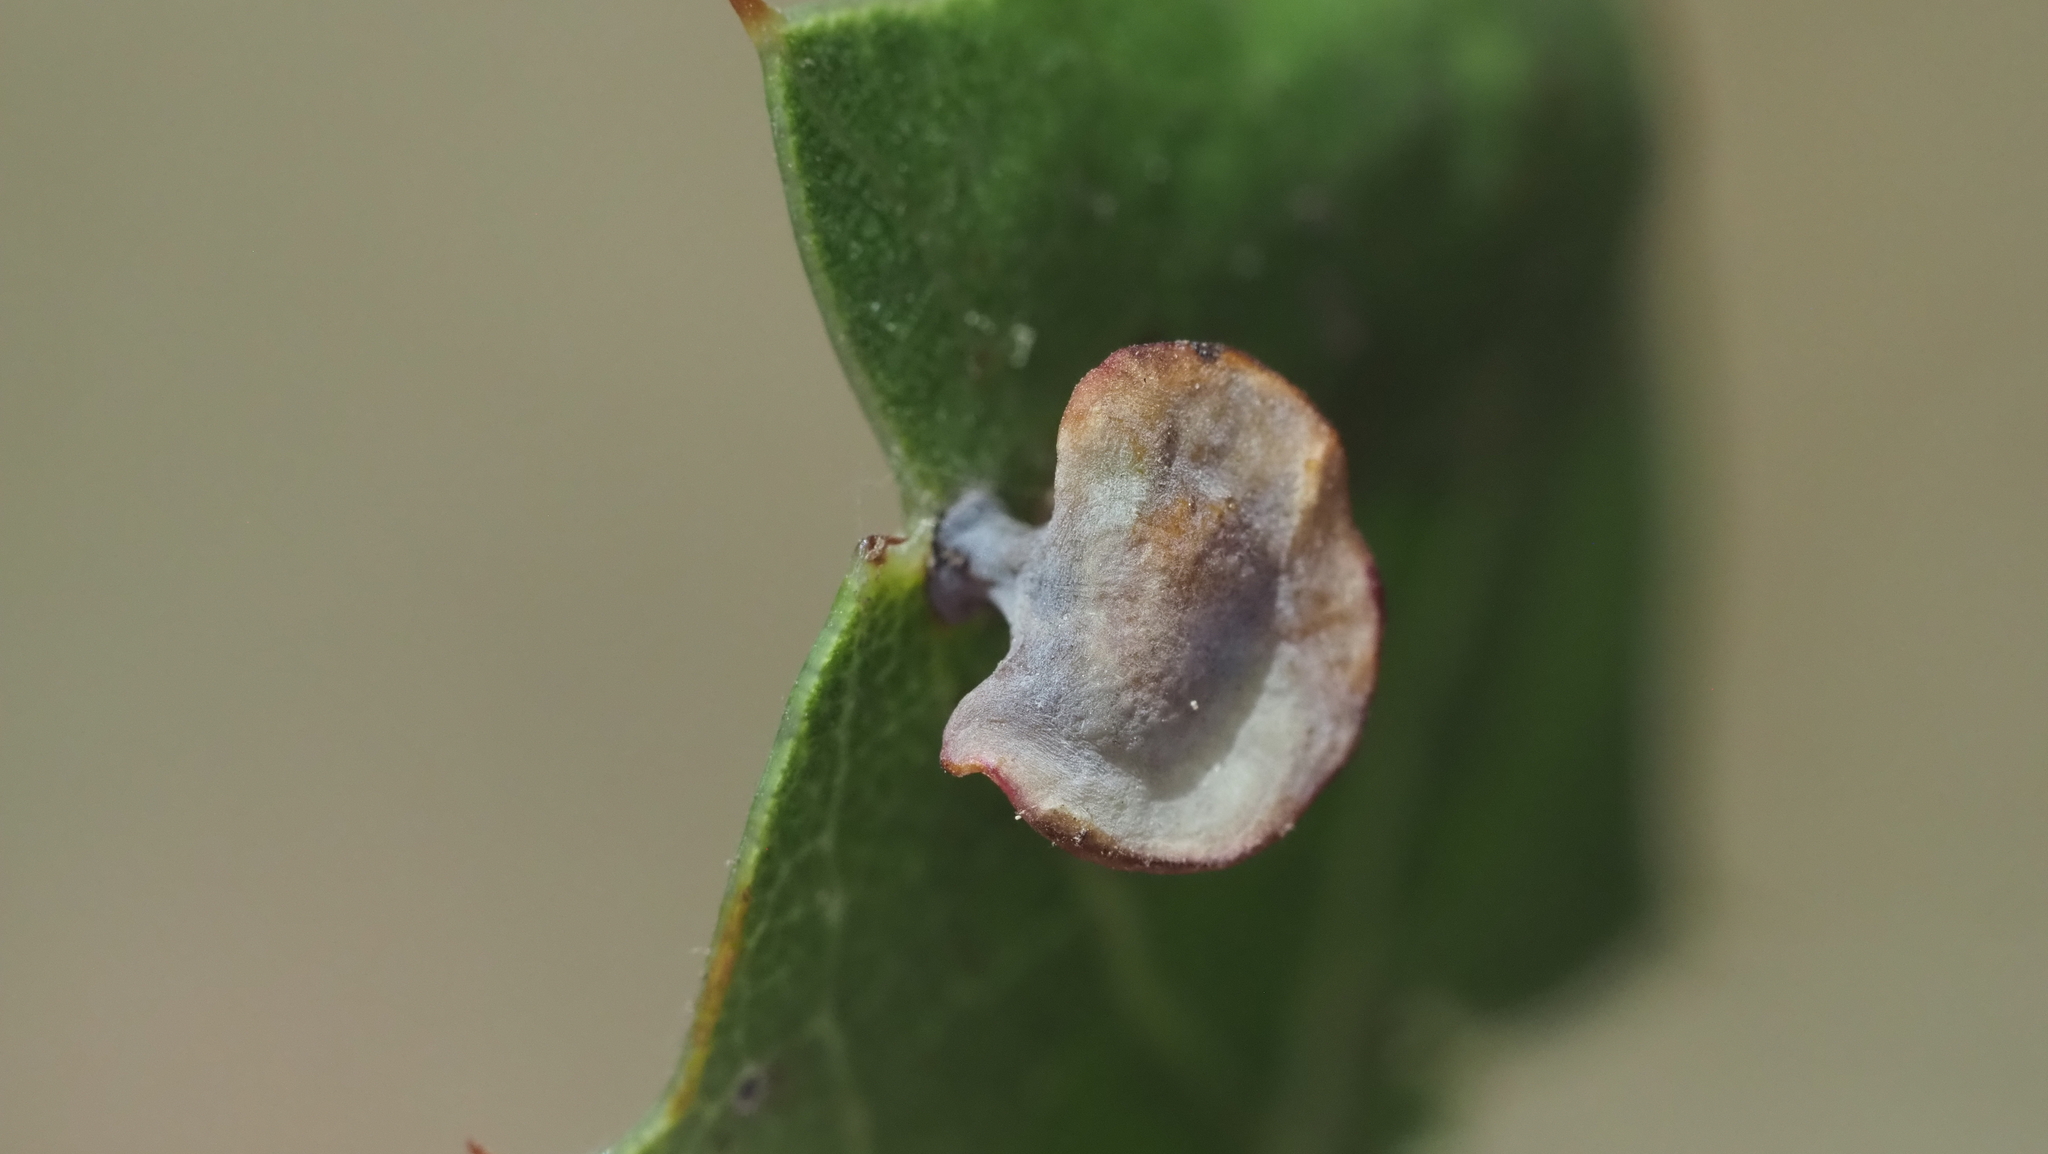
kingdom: Animalia
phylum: Arthropoda
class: Insecta
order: Hymenoptera
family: Cynipidae
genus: Amphibolips
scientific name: Amphibolips quercuspomiformis
